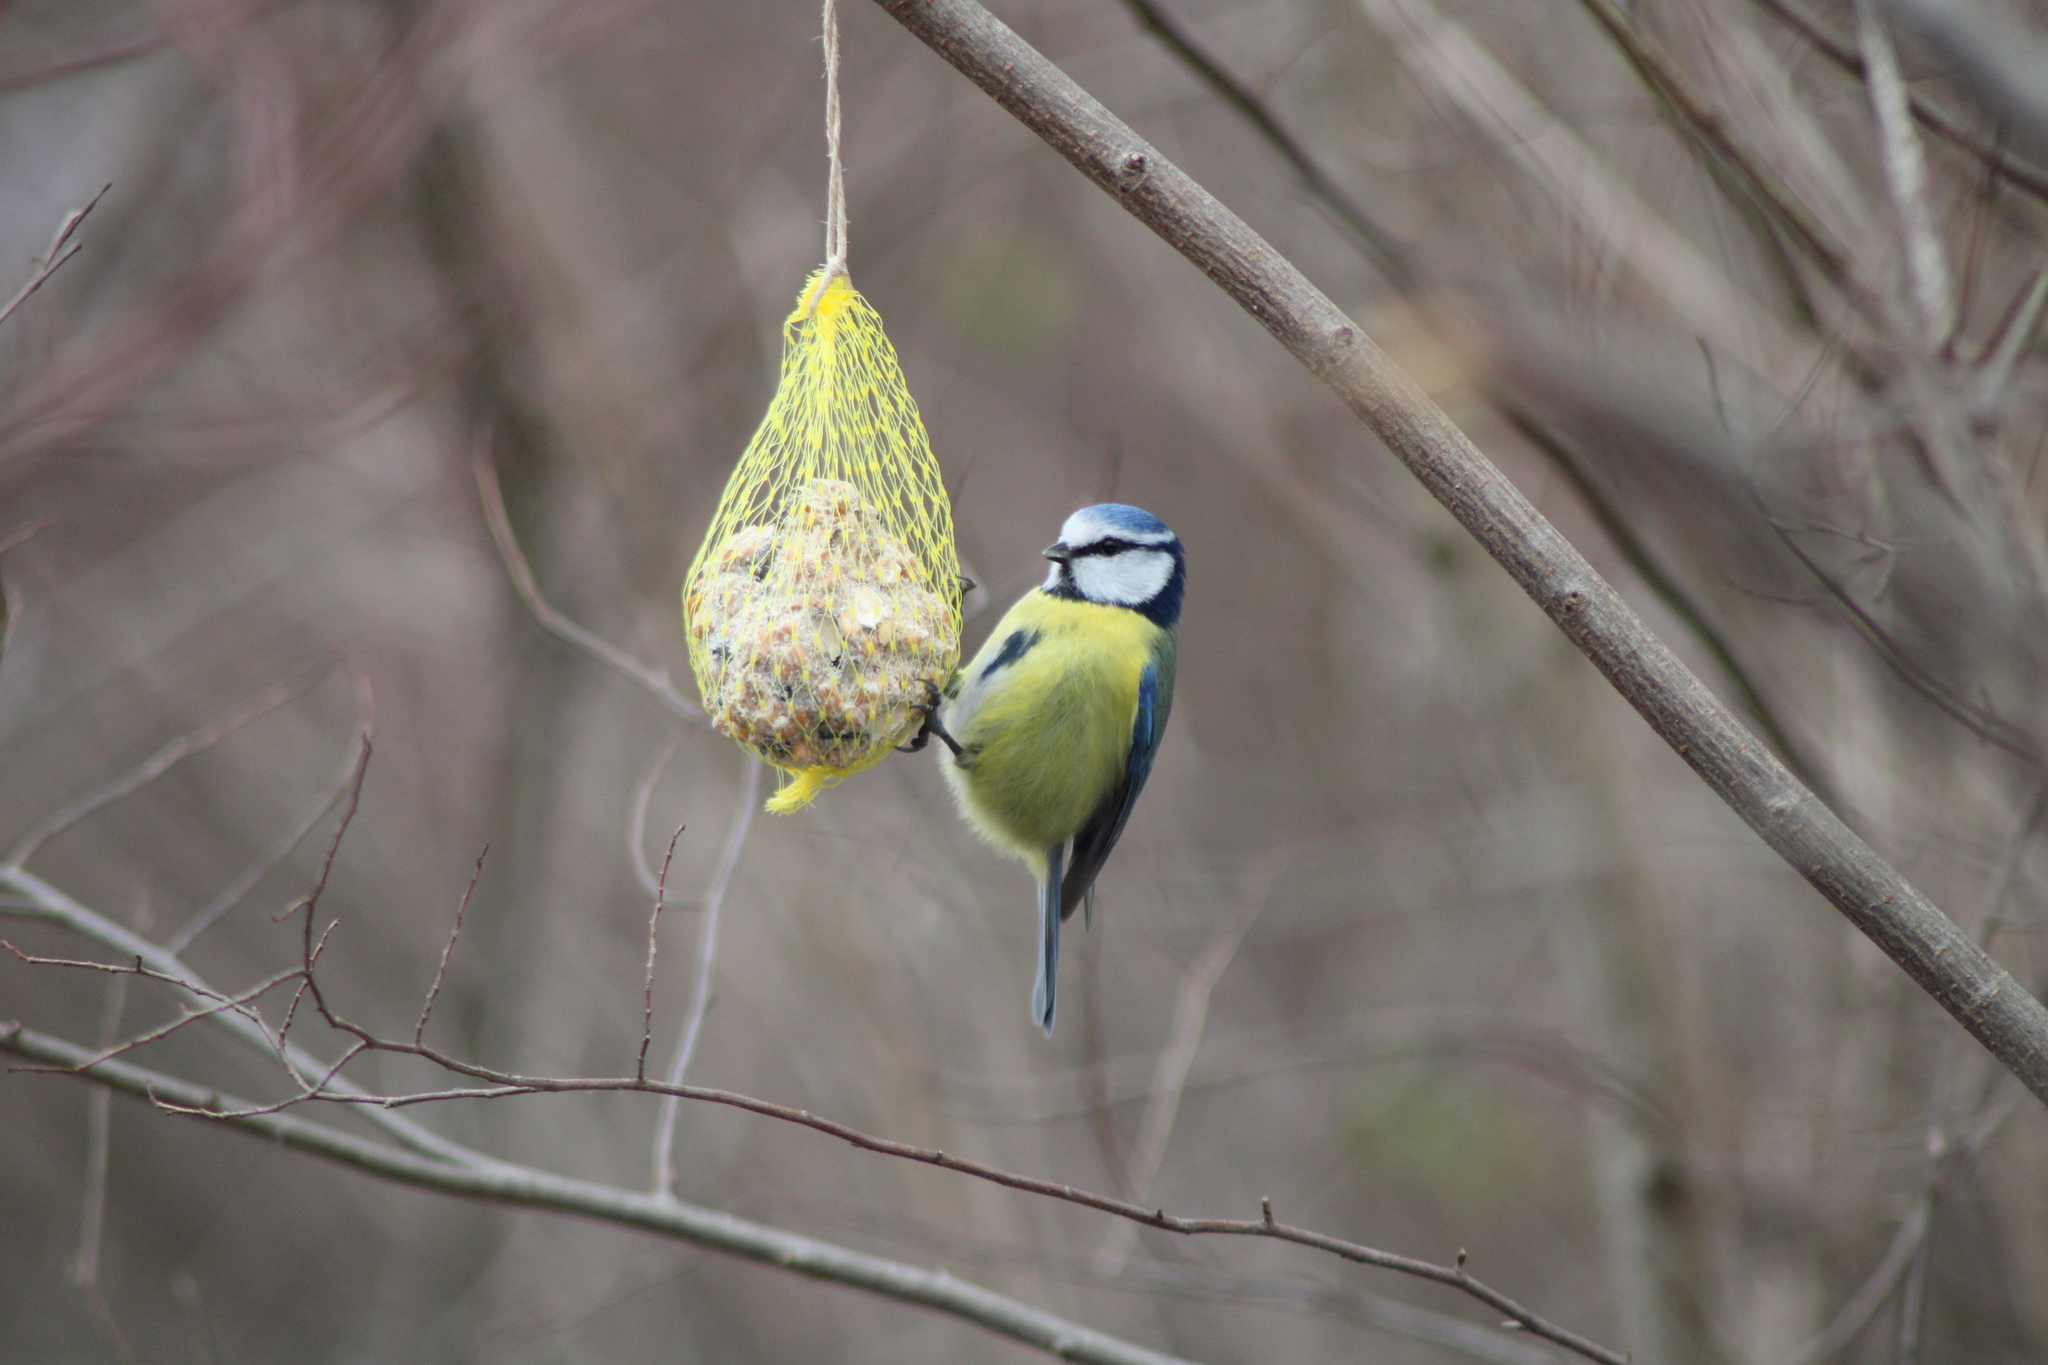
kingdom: Animalia
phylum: Chordata
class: Aves
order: Passeriformes
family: Paridae
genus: Cyanistes
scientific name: Cyanistes caeruleus
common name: Eurasian blue tit
